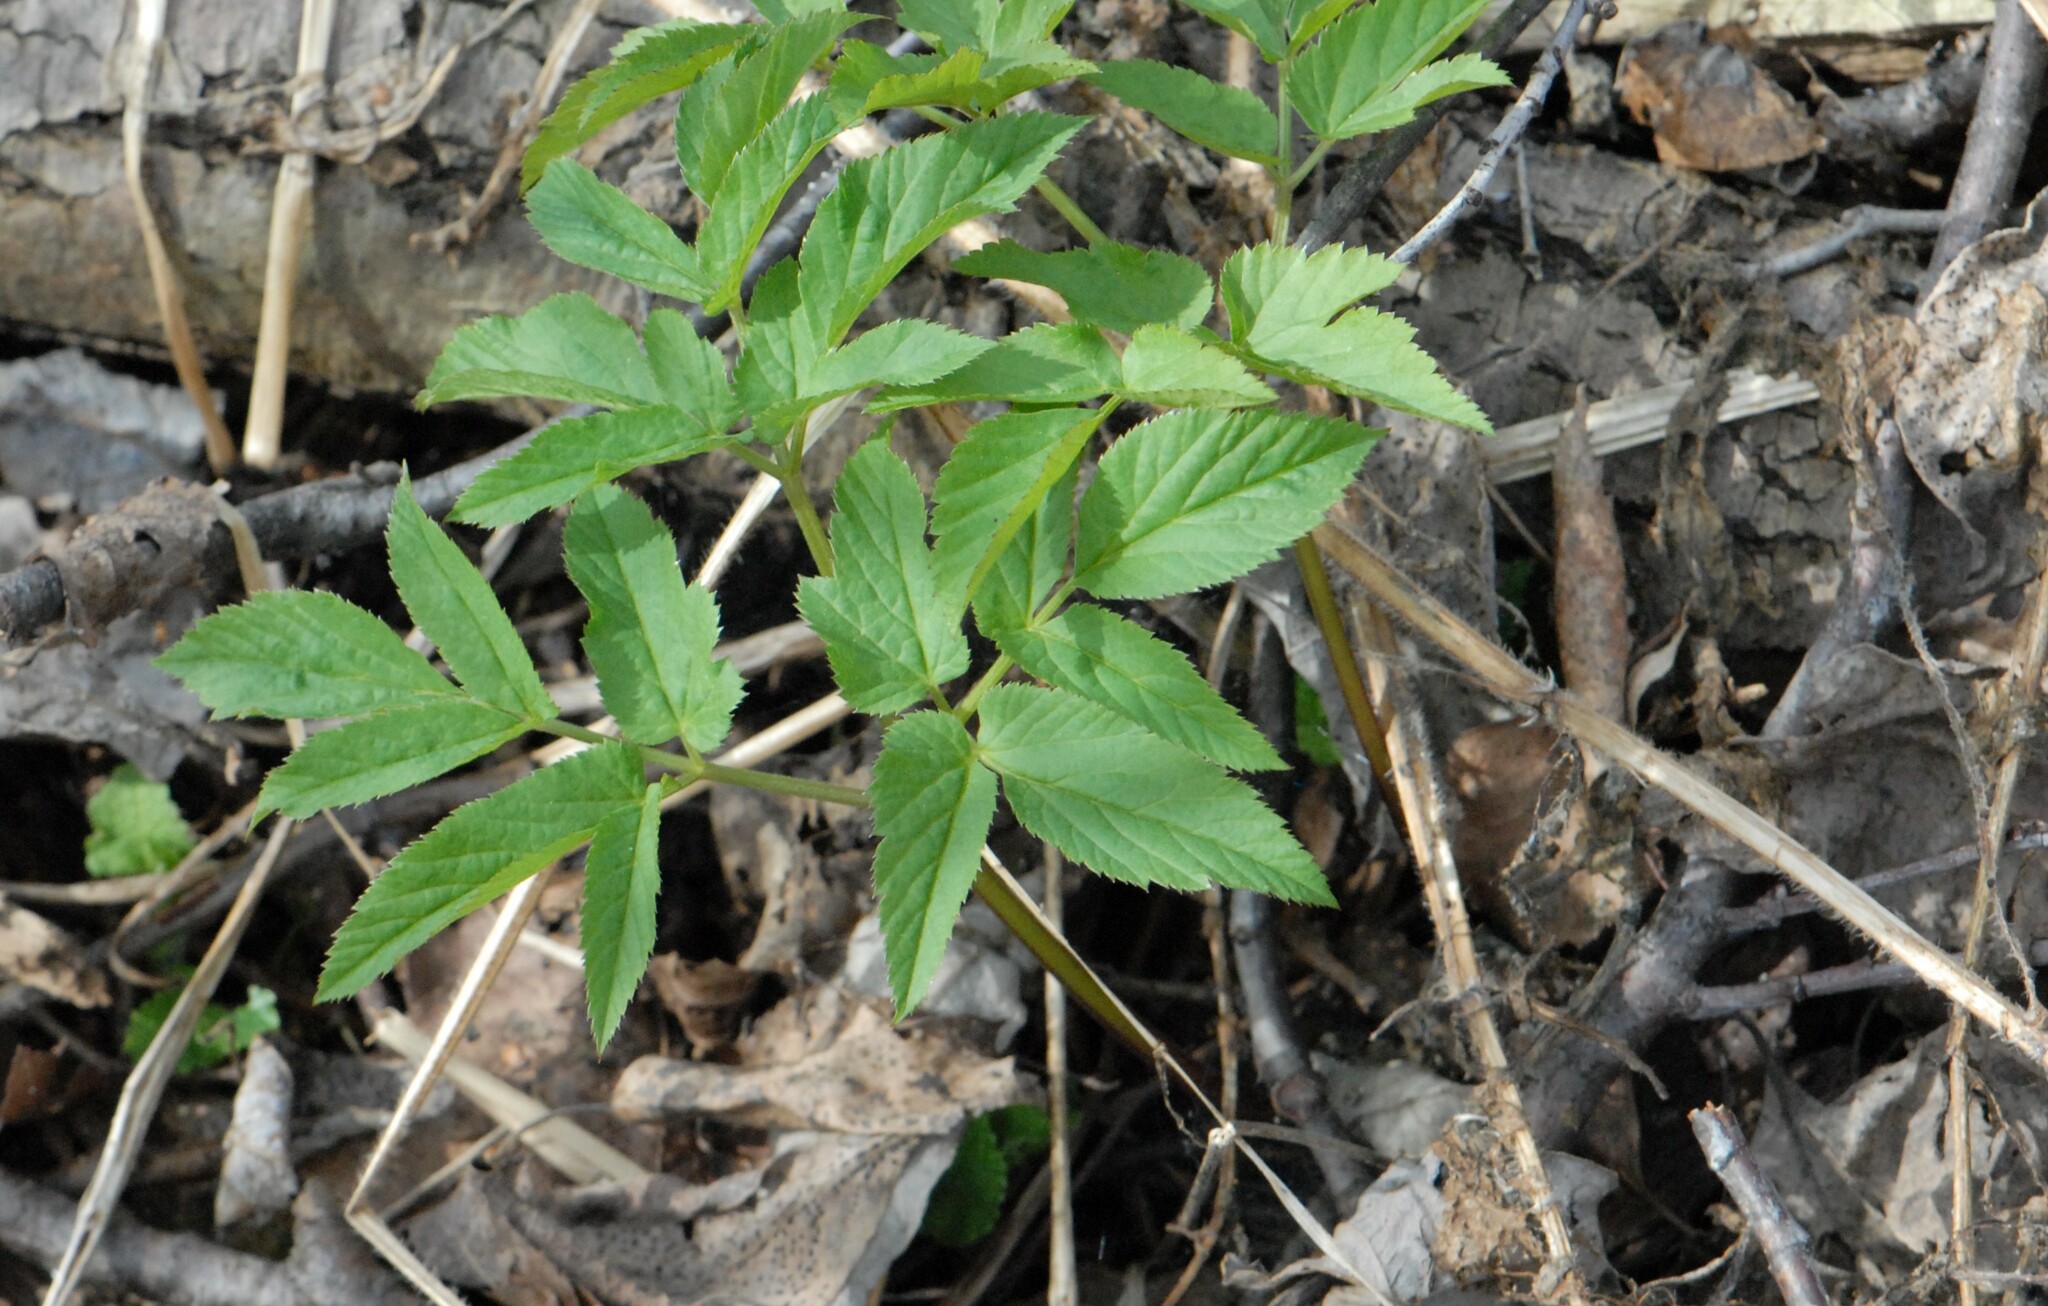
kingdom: Plantae
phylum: Tracheophyta
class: Magnoliopsida
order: Apiales
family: Apiaceae
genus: Aegopodium
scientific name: Aegopodium podagraria
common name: Ground-elder
